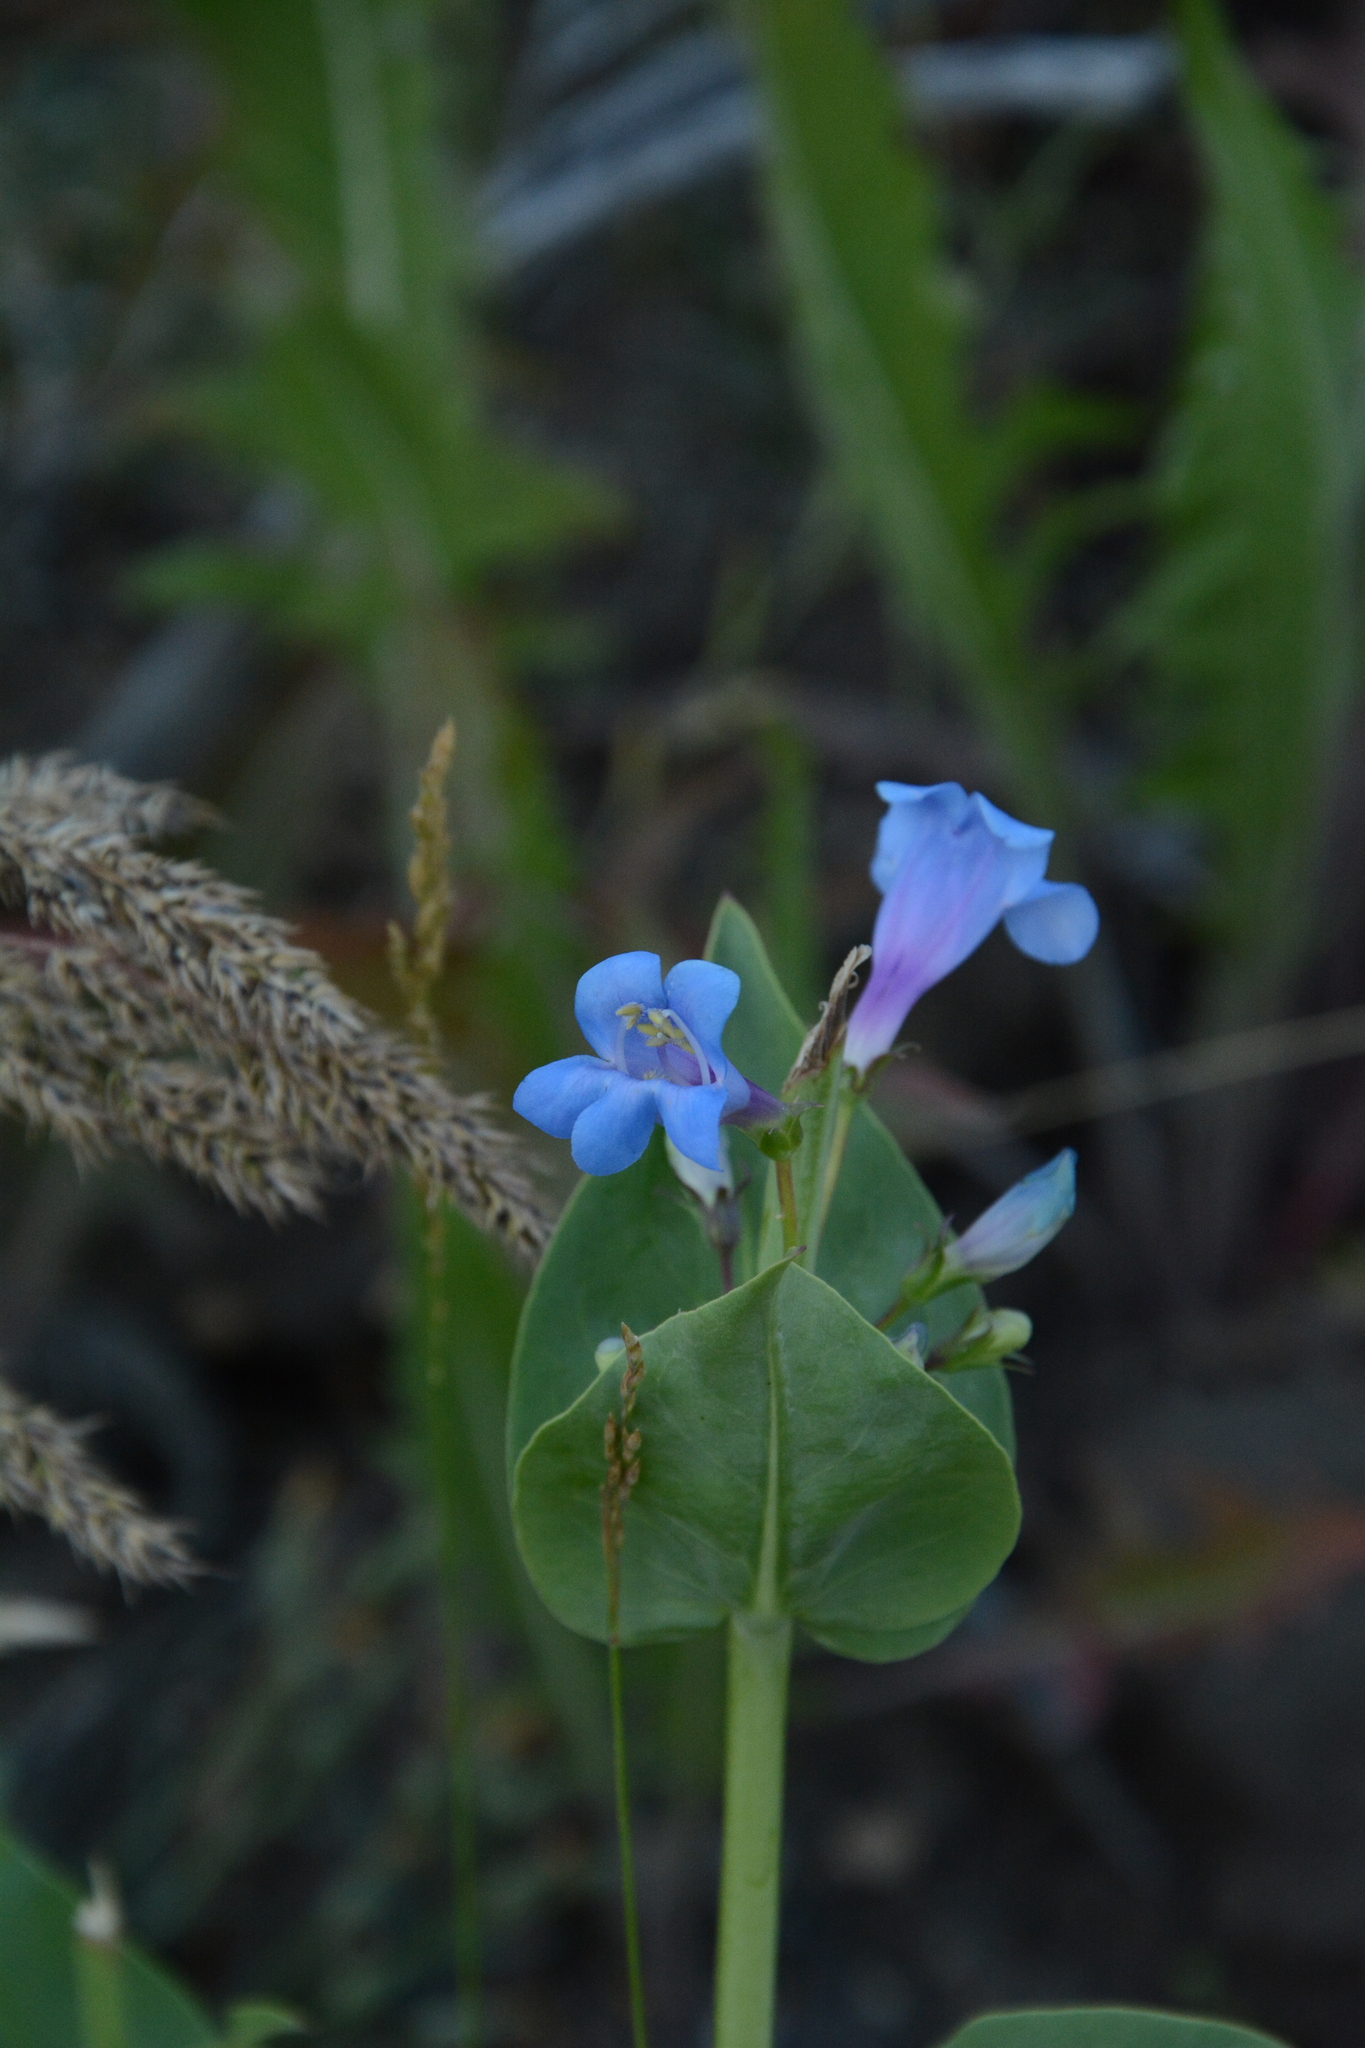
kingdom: Plantae
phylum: Tracheophyta
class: Magnoliopsida
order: Lamiales
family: Plantaginaceae
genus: Penstemon
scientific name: Penstemon cyananthus
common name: Wasatch penstemon
